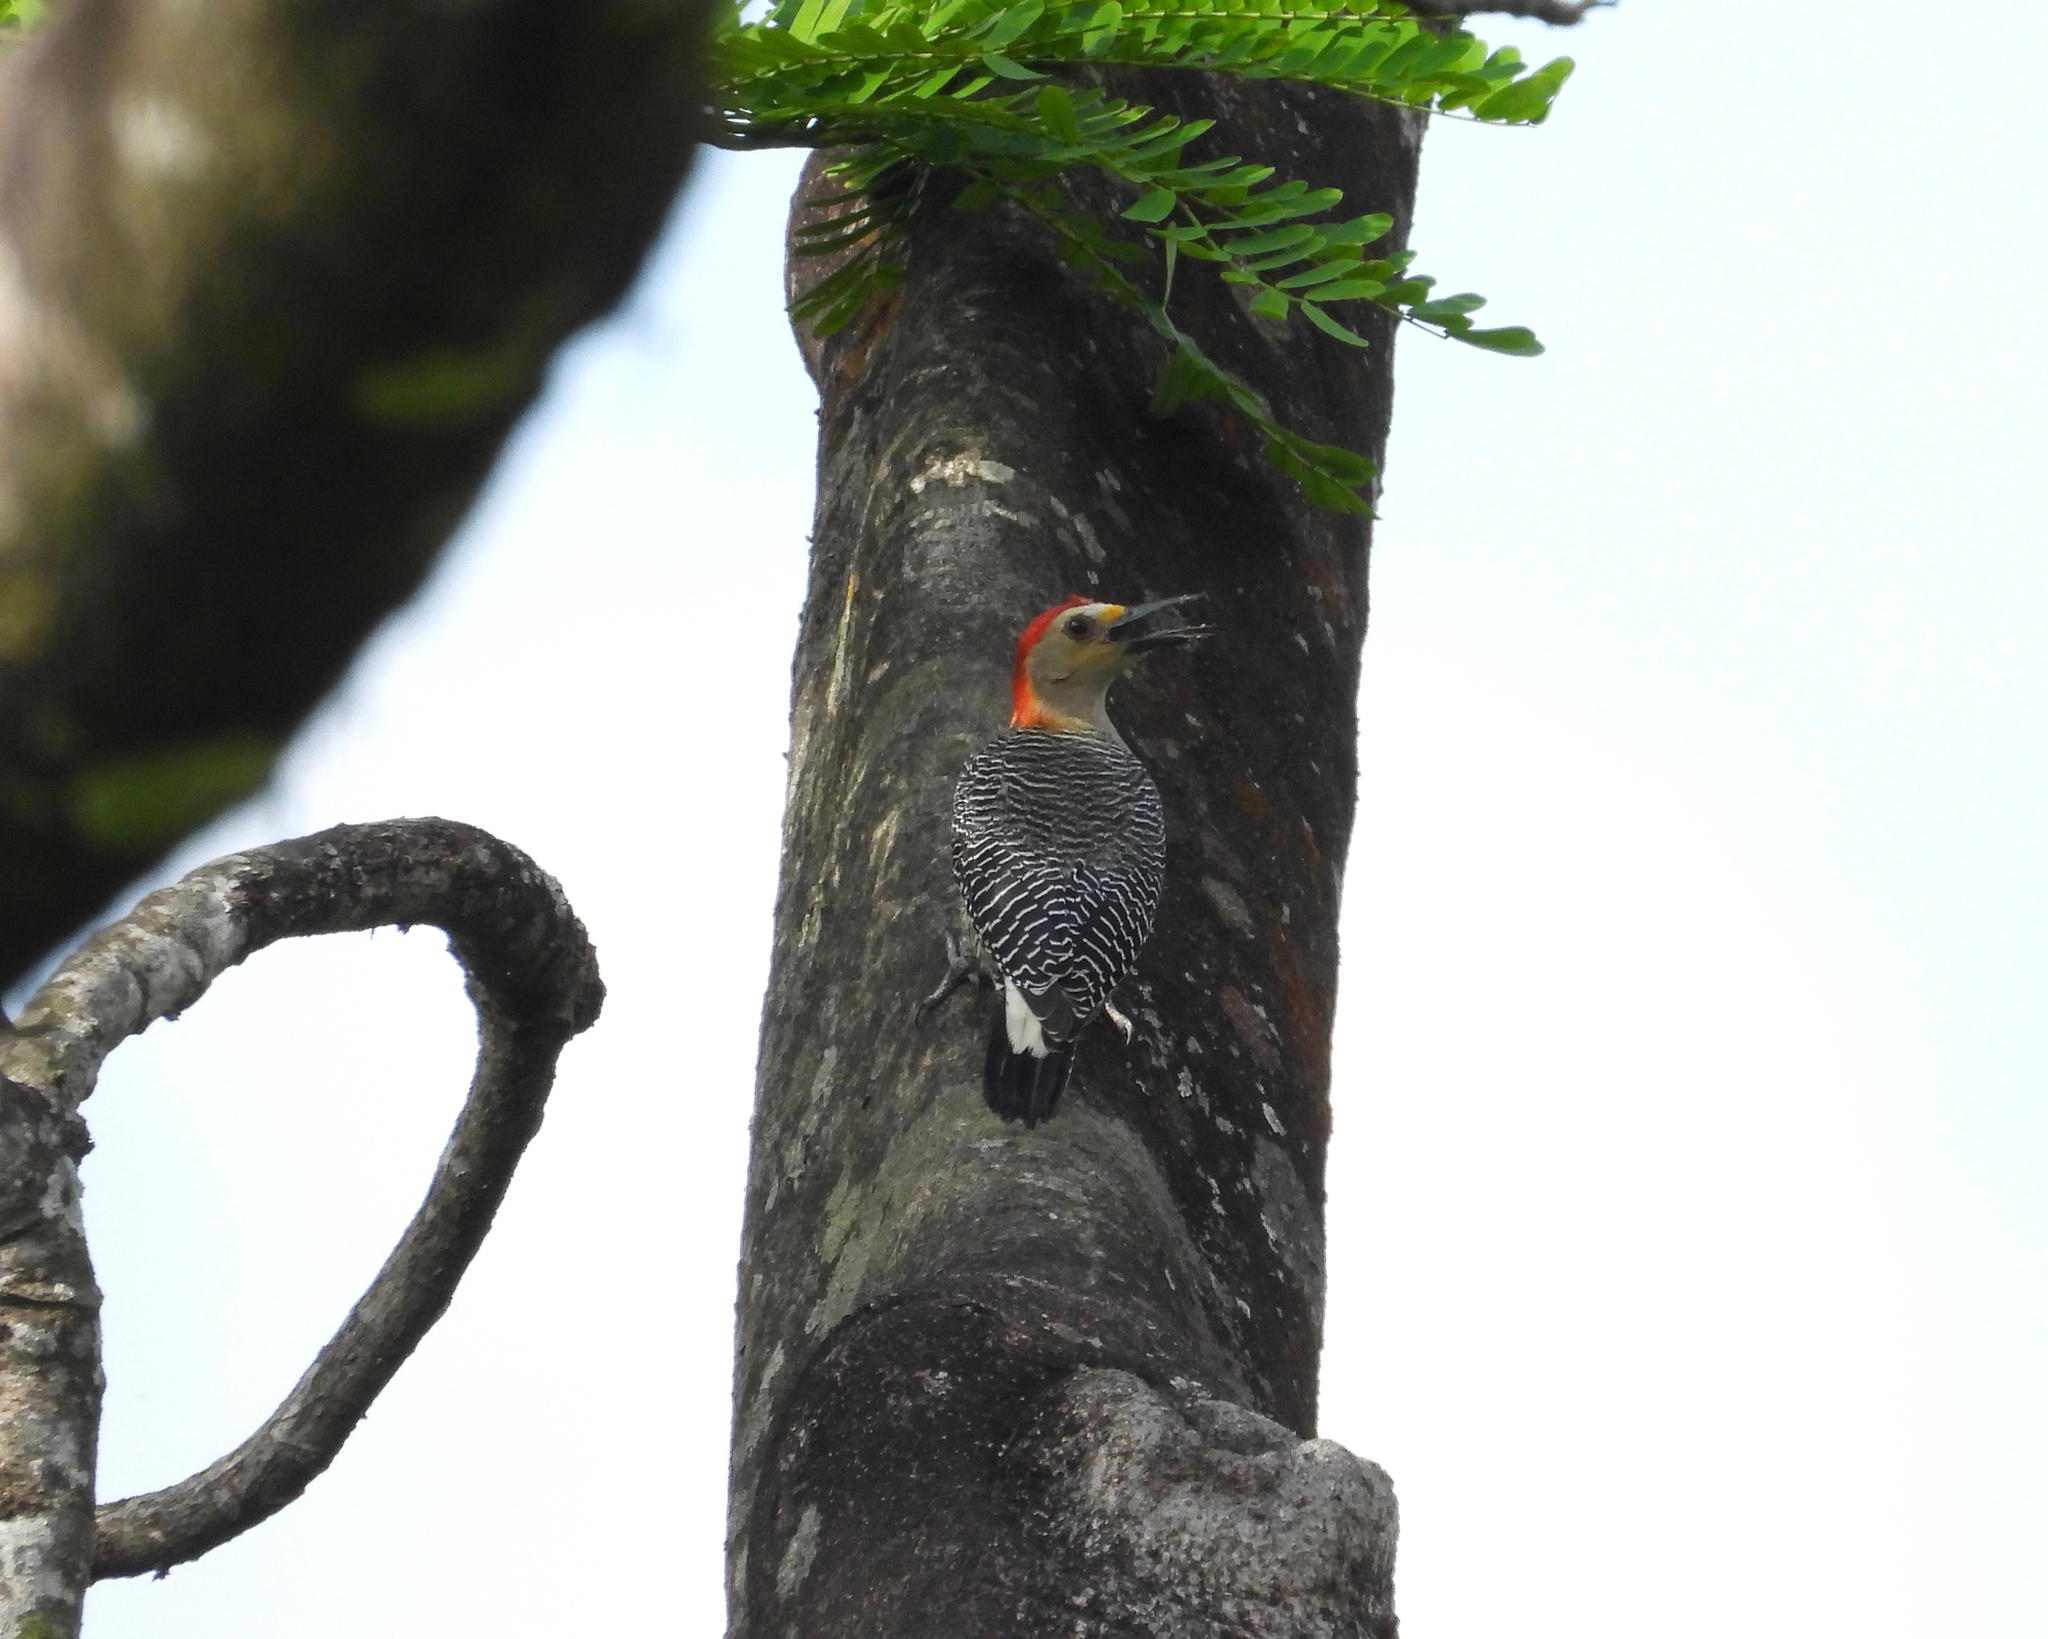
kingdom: Animalia
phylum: Chordata
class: Aves
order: Piciformes
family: Picidae
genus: Melanerpes
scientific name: Melanerpes santacruzi
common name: Velasquez's woodpecker
